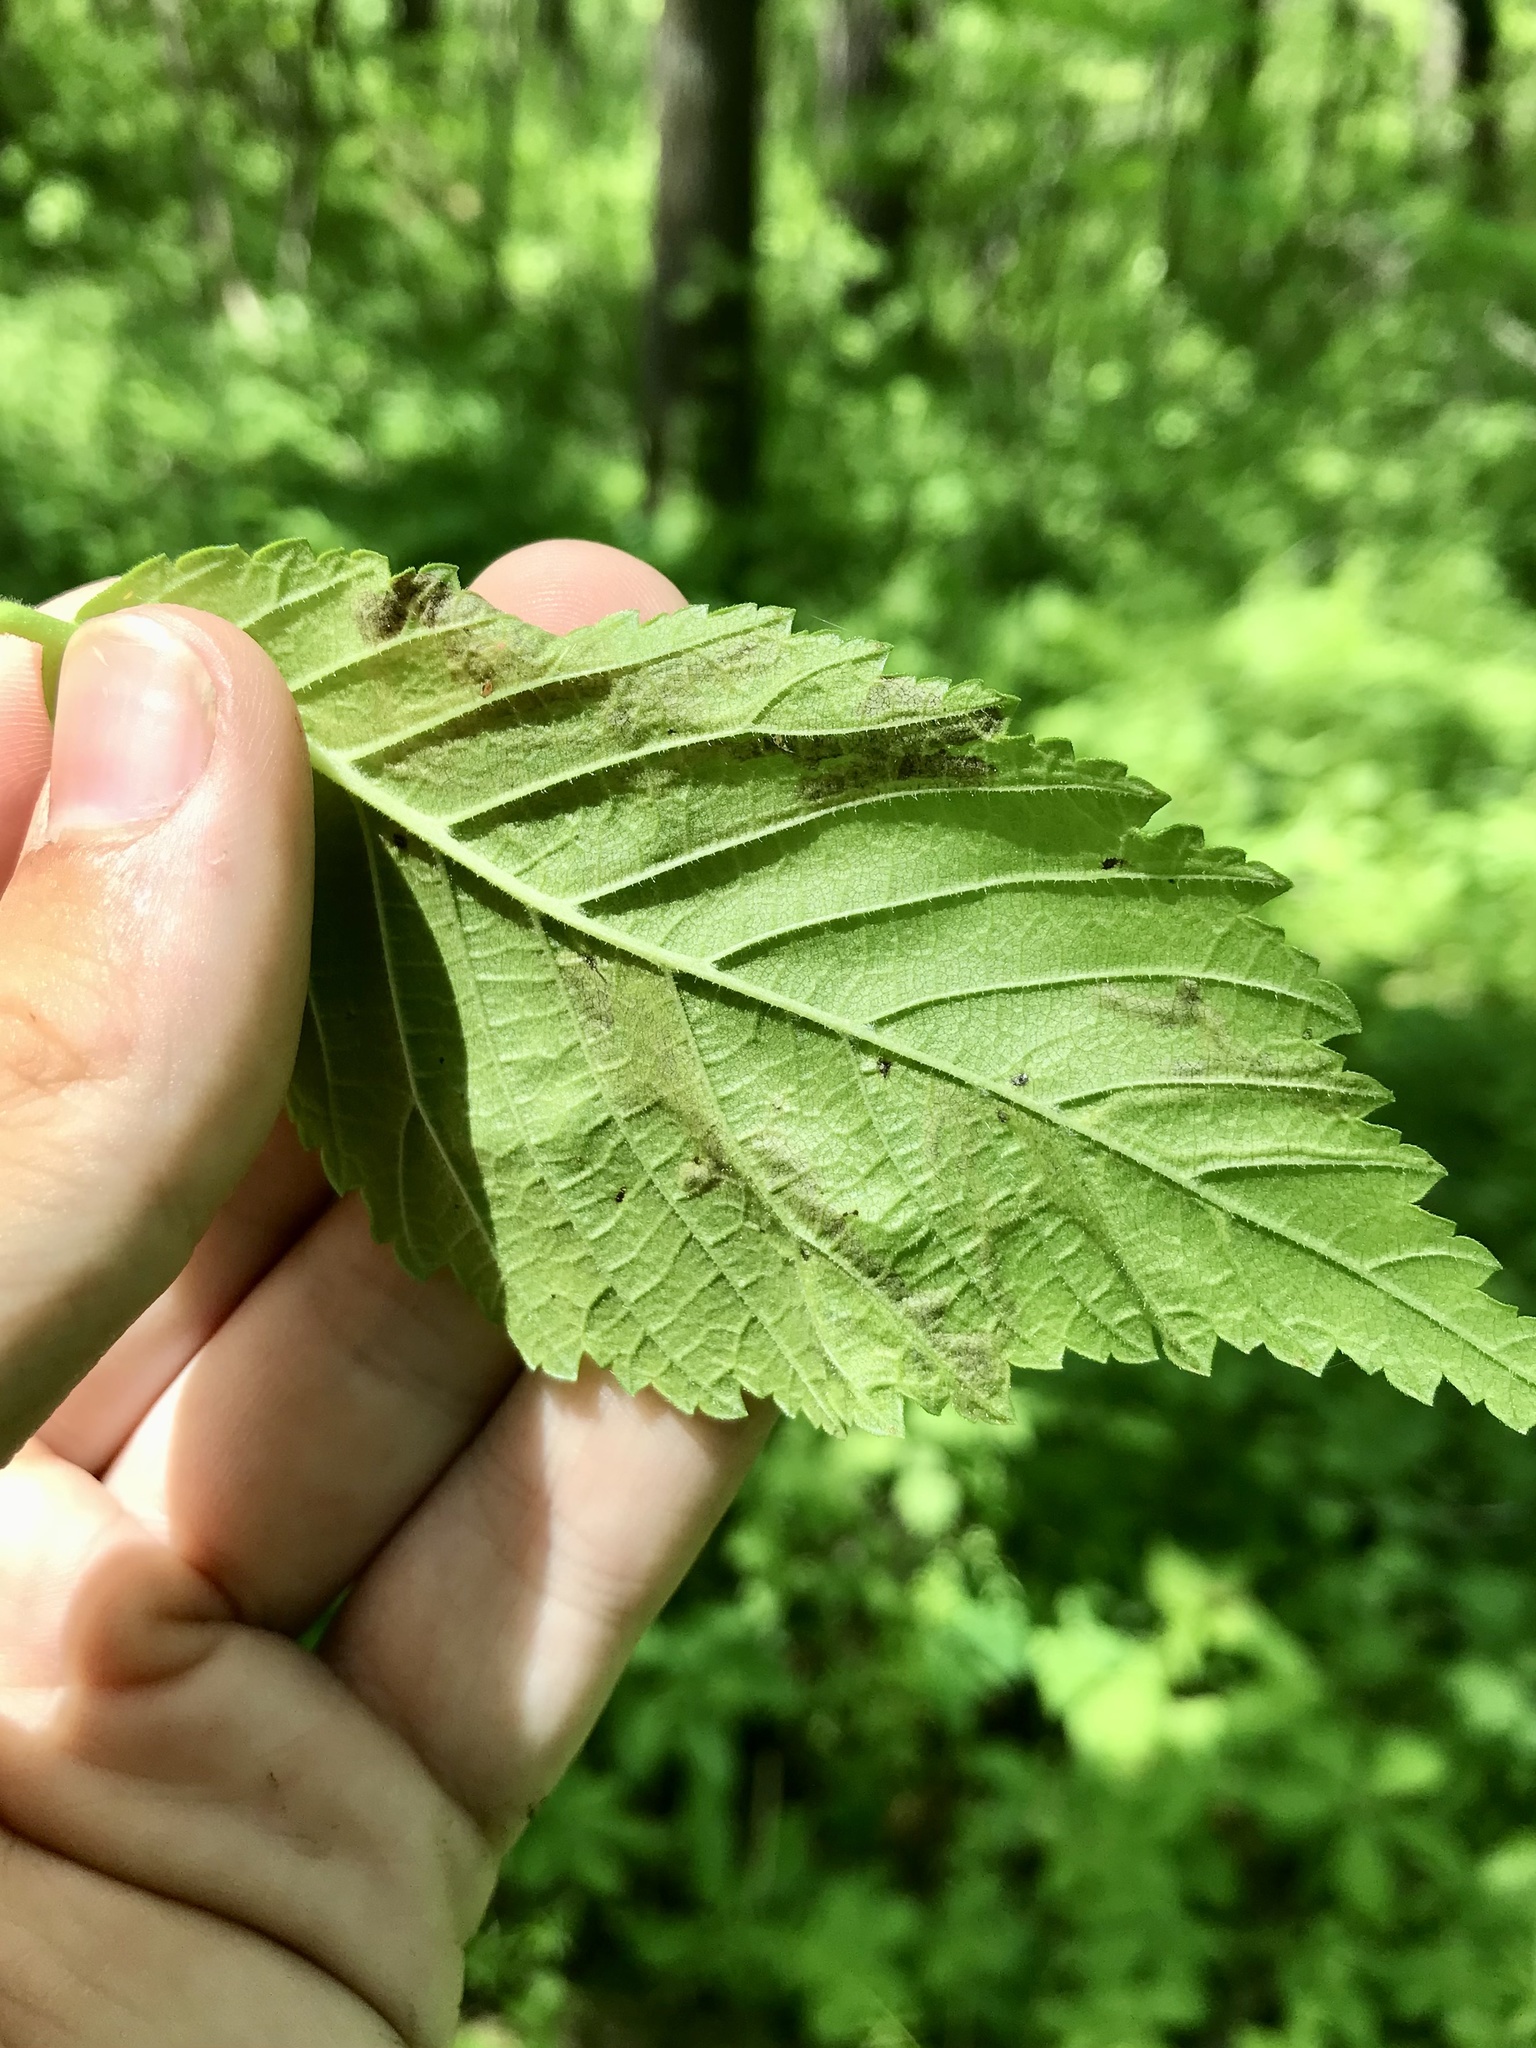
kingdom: Animalia
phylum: Arthropoda
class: Insecta
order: Diptera
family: Agromyzidae
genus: Agromyza
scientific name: Agromyza aristata
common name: Elm agromyzid leafminer
